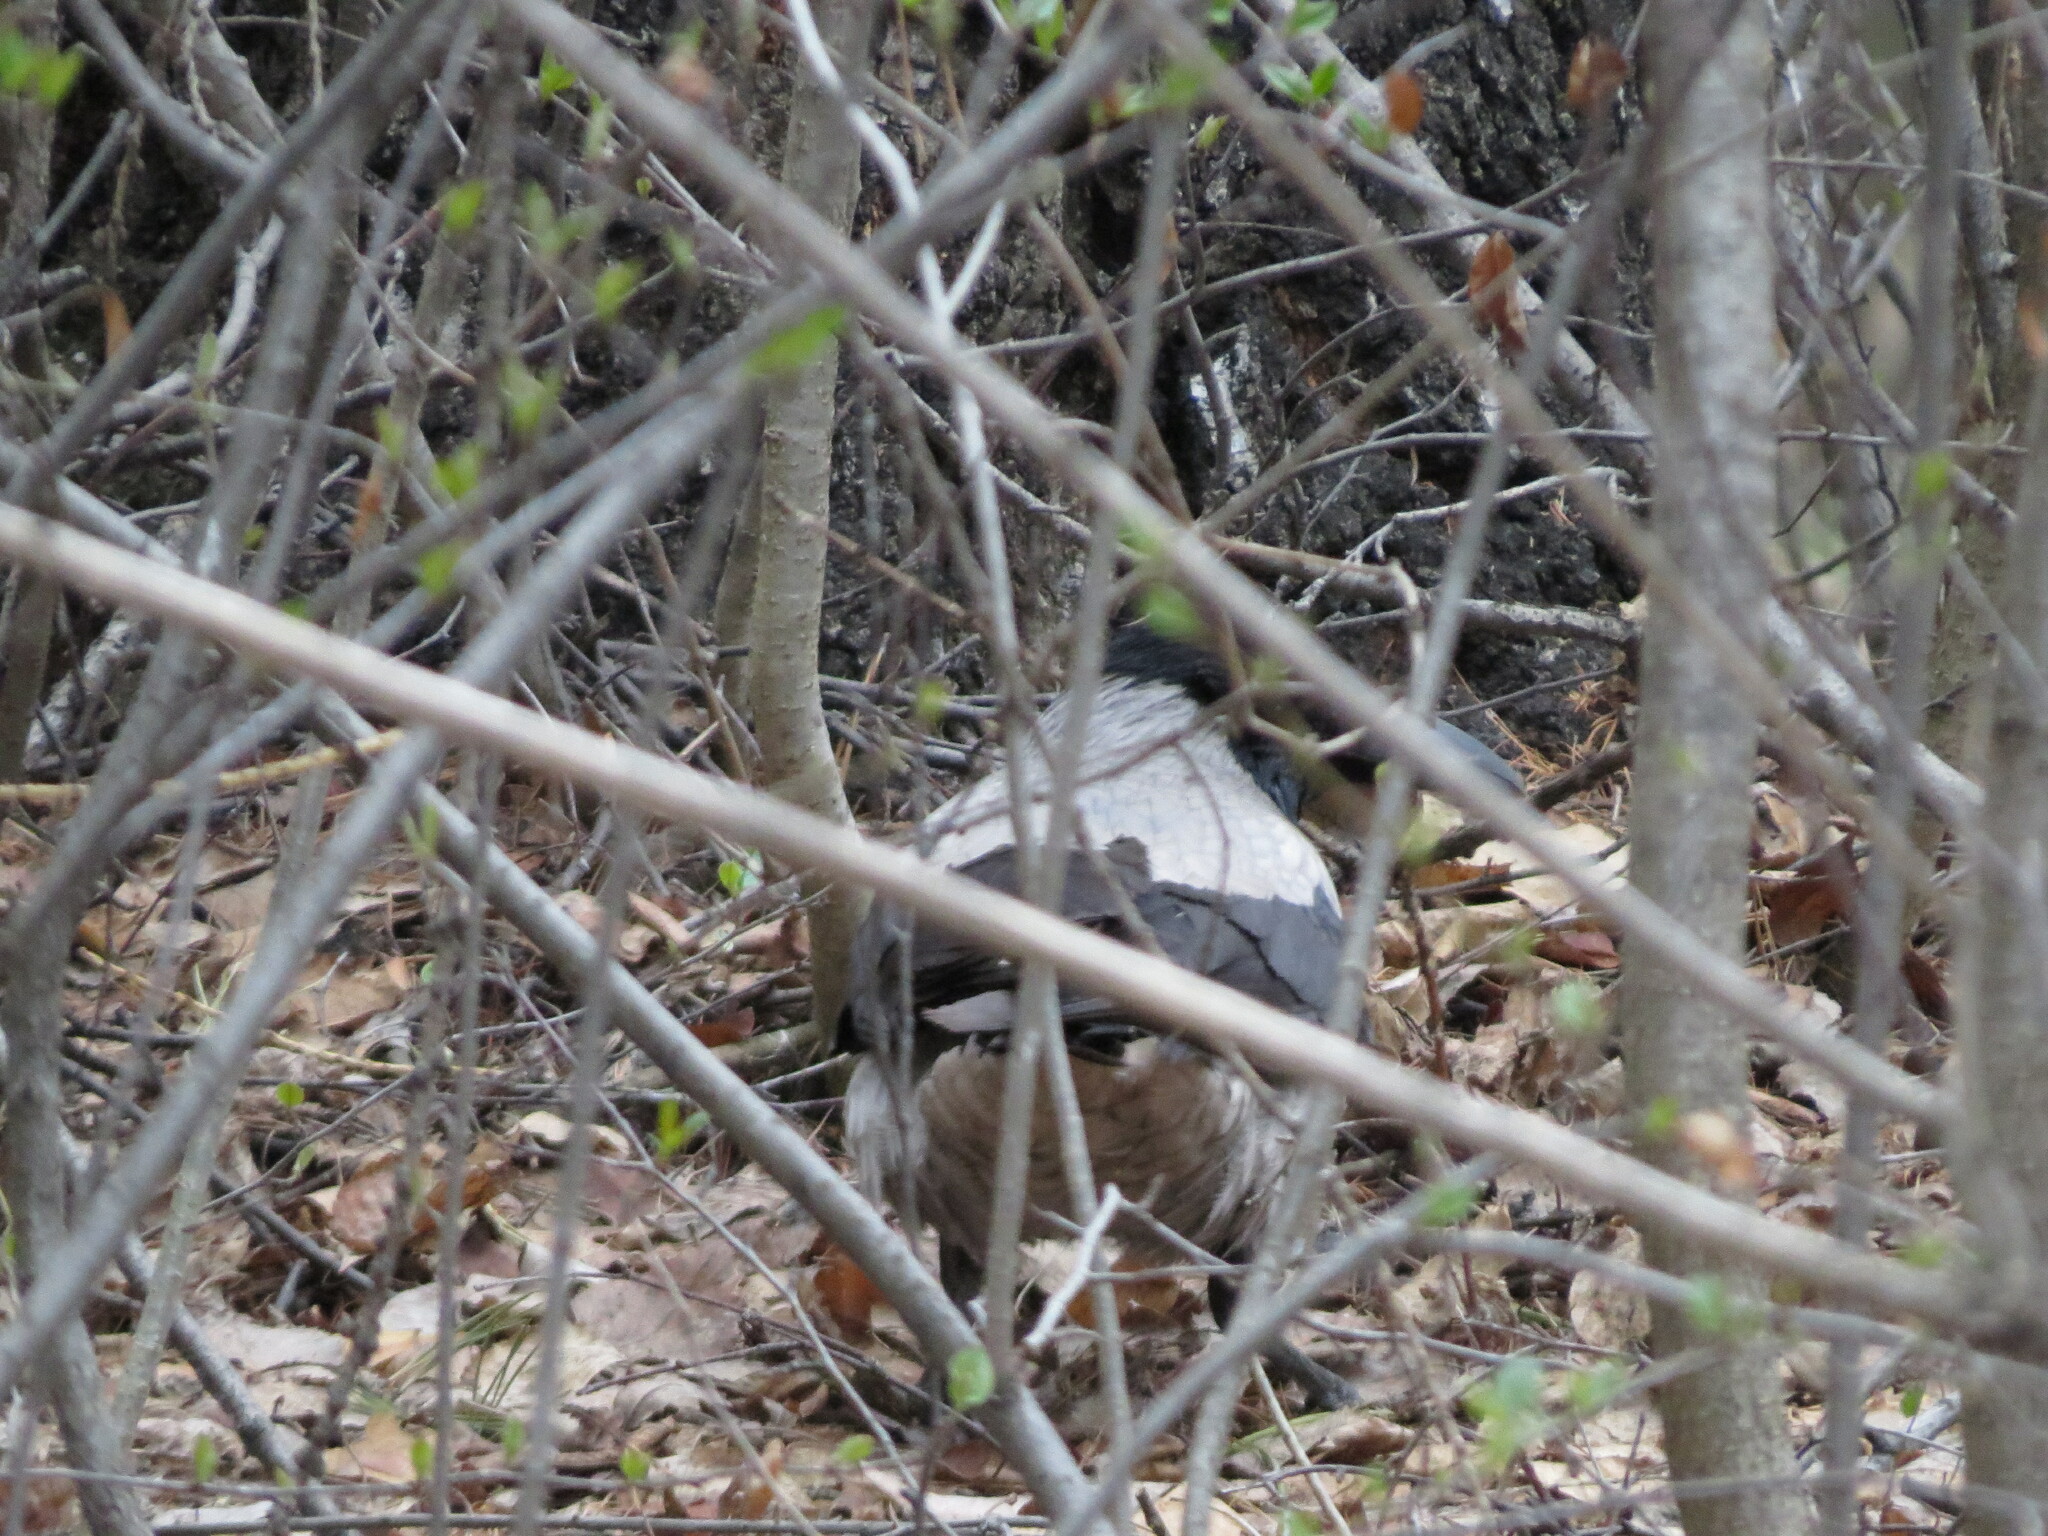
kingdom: Animalia
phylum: Chordata
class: Aves
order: Passeriformes
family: Corvidae
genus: Corvus
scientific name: Corvus cornix
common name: Hooded crow
